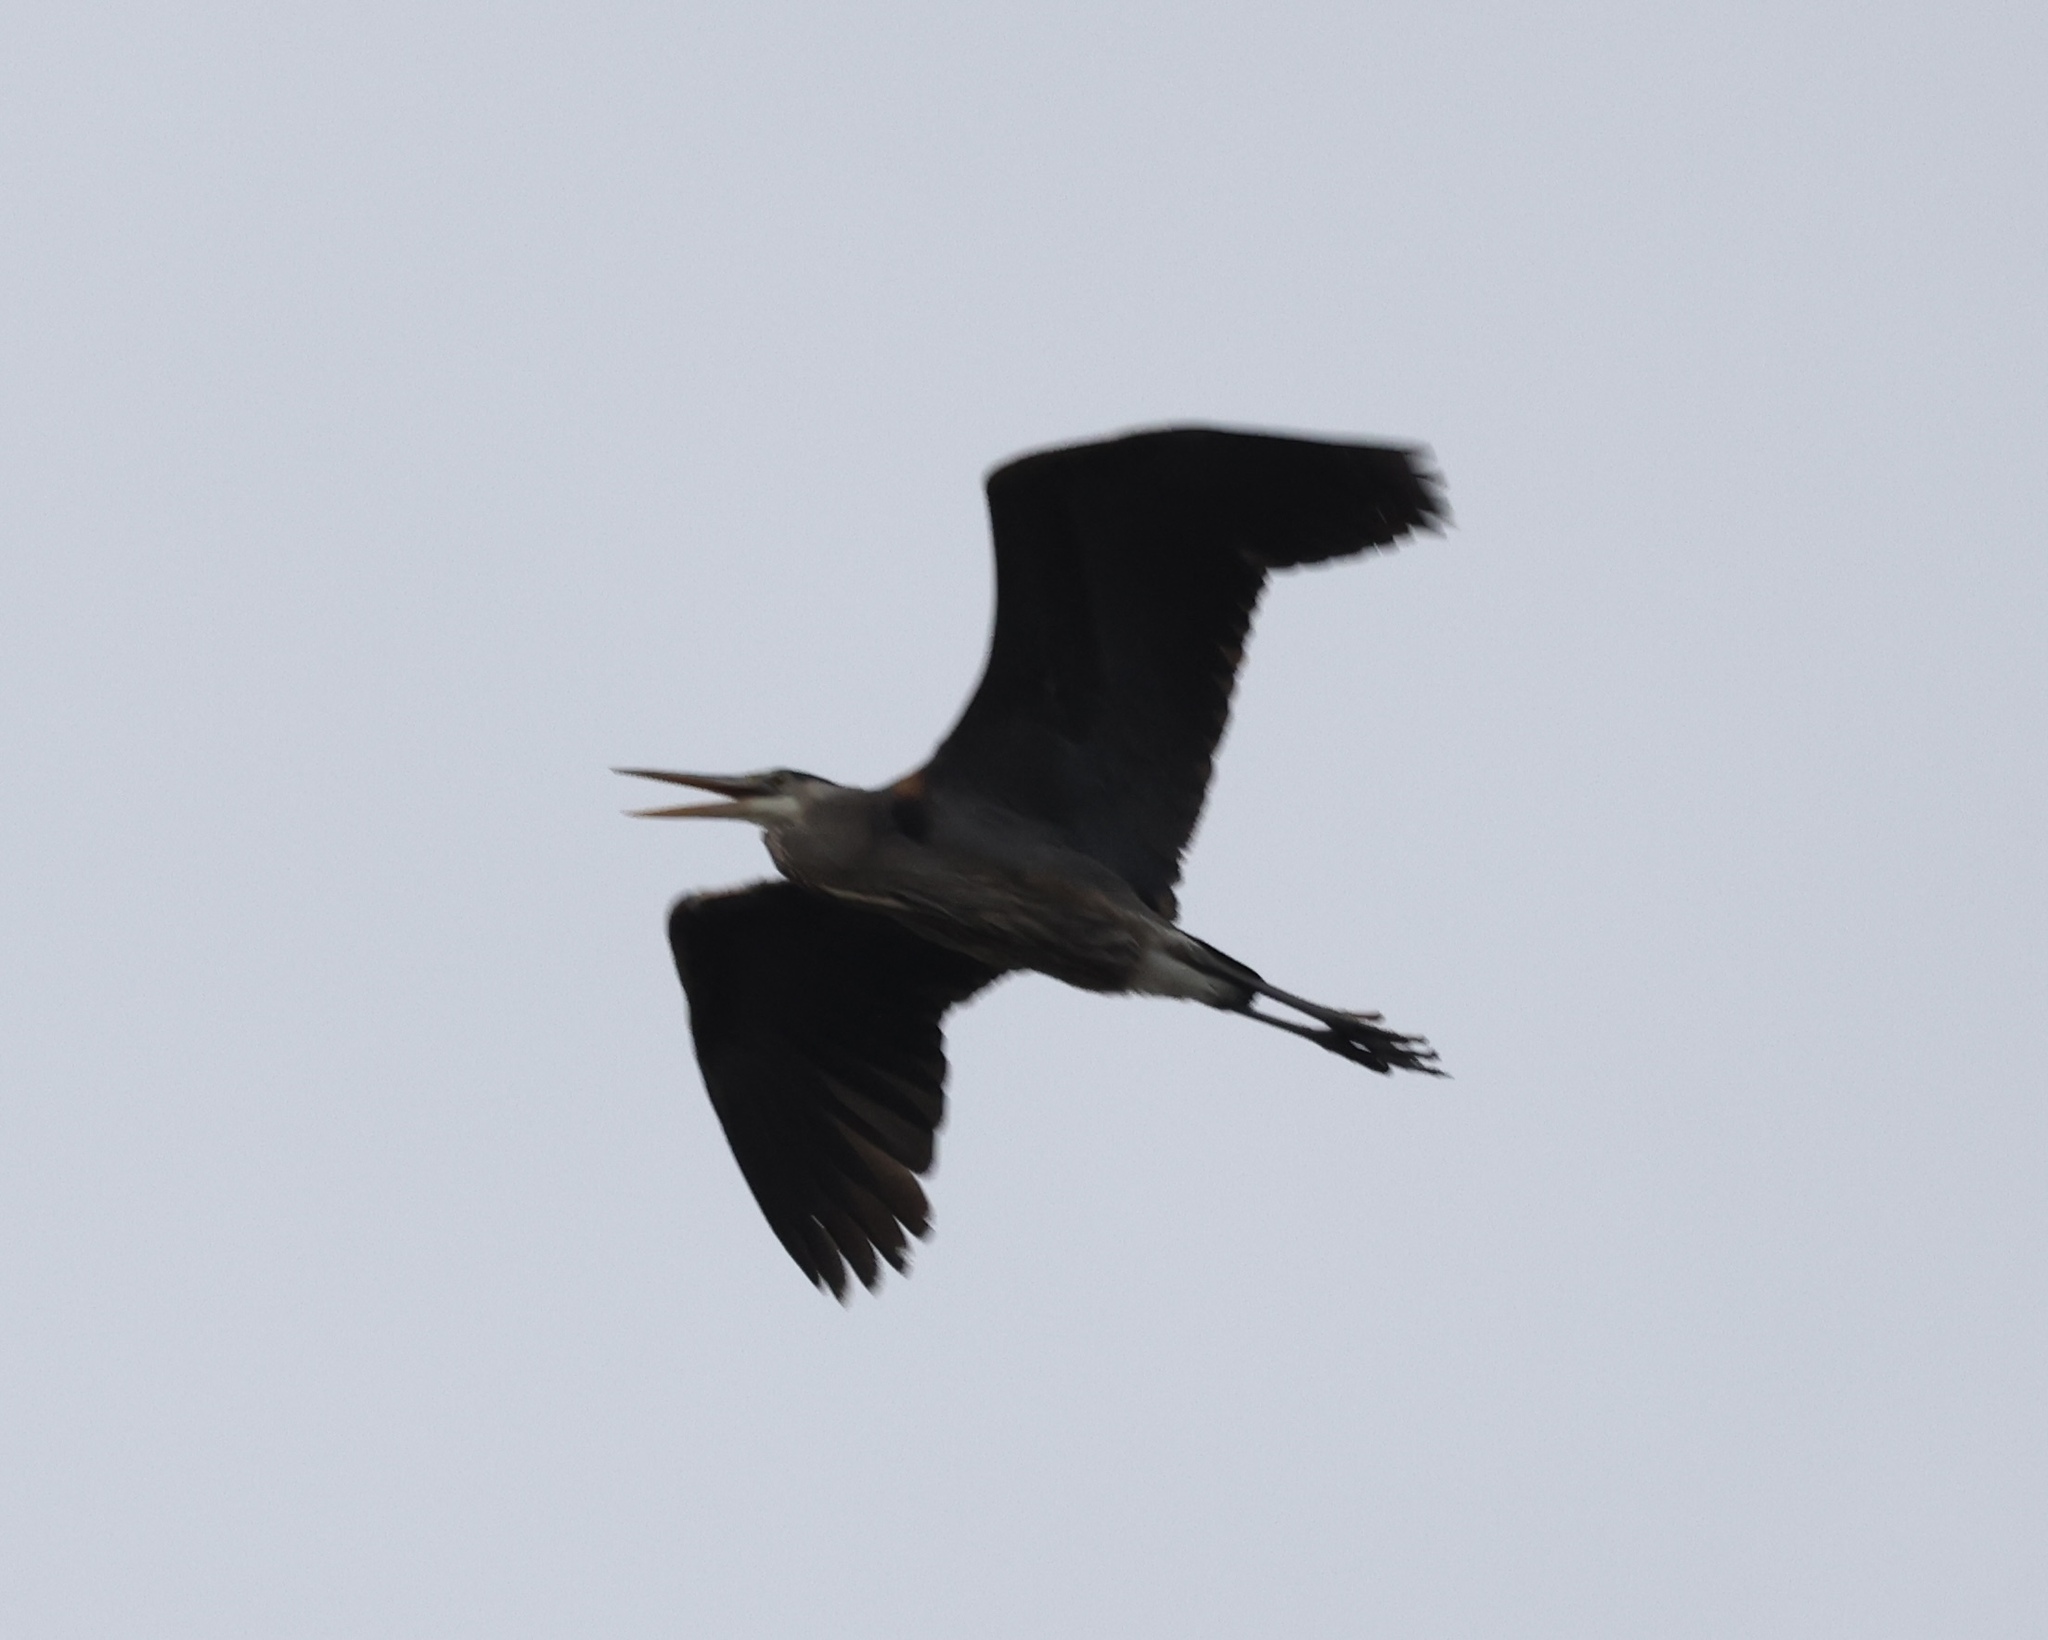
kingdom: Animalia
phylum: Chordata
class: Aves
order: Pelecaniformes
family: Ardeidae
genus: Ardea
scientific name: Ardea herodias
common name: Great blue heron
